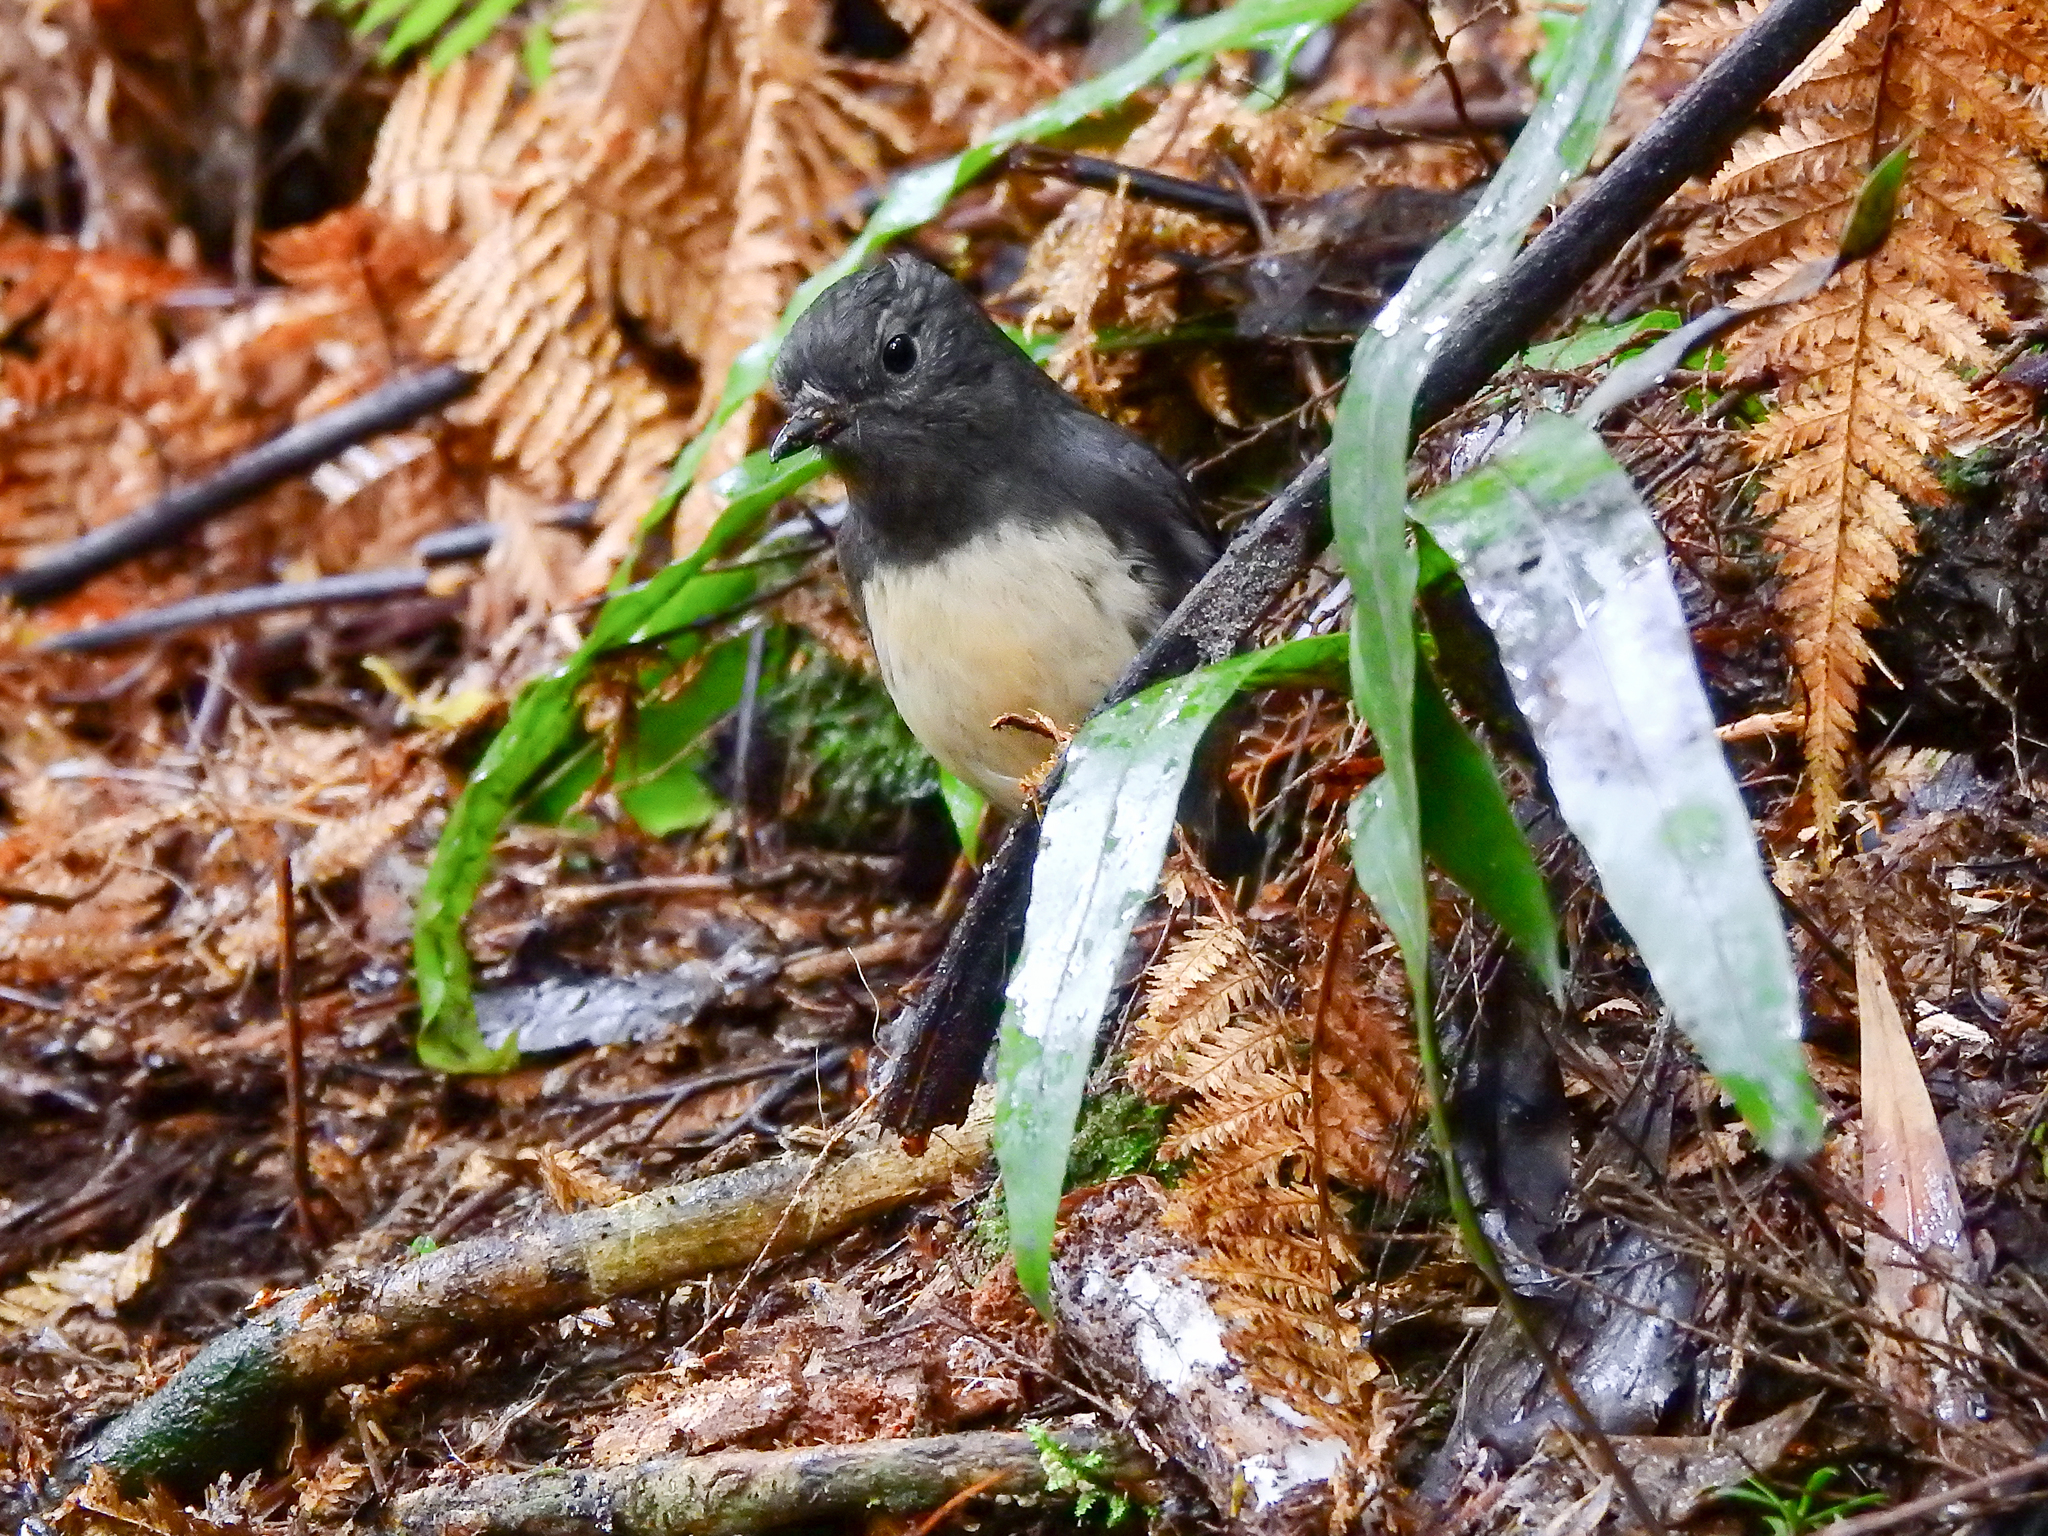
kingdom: Animalia
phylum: Chordata
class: Aves
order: Passeriformes
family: Petroicidae
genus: Petroica
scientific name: Petroica australis
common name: New zealand robin
